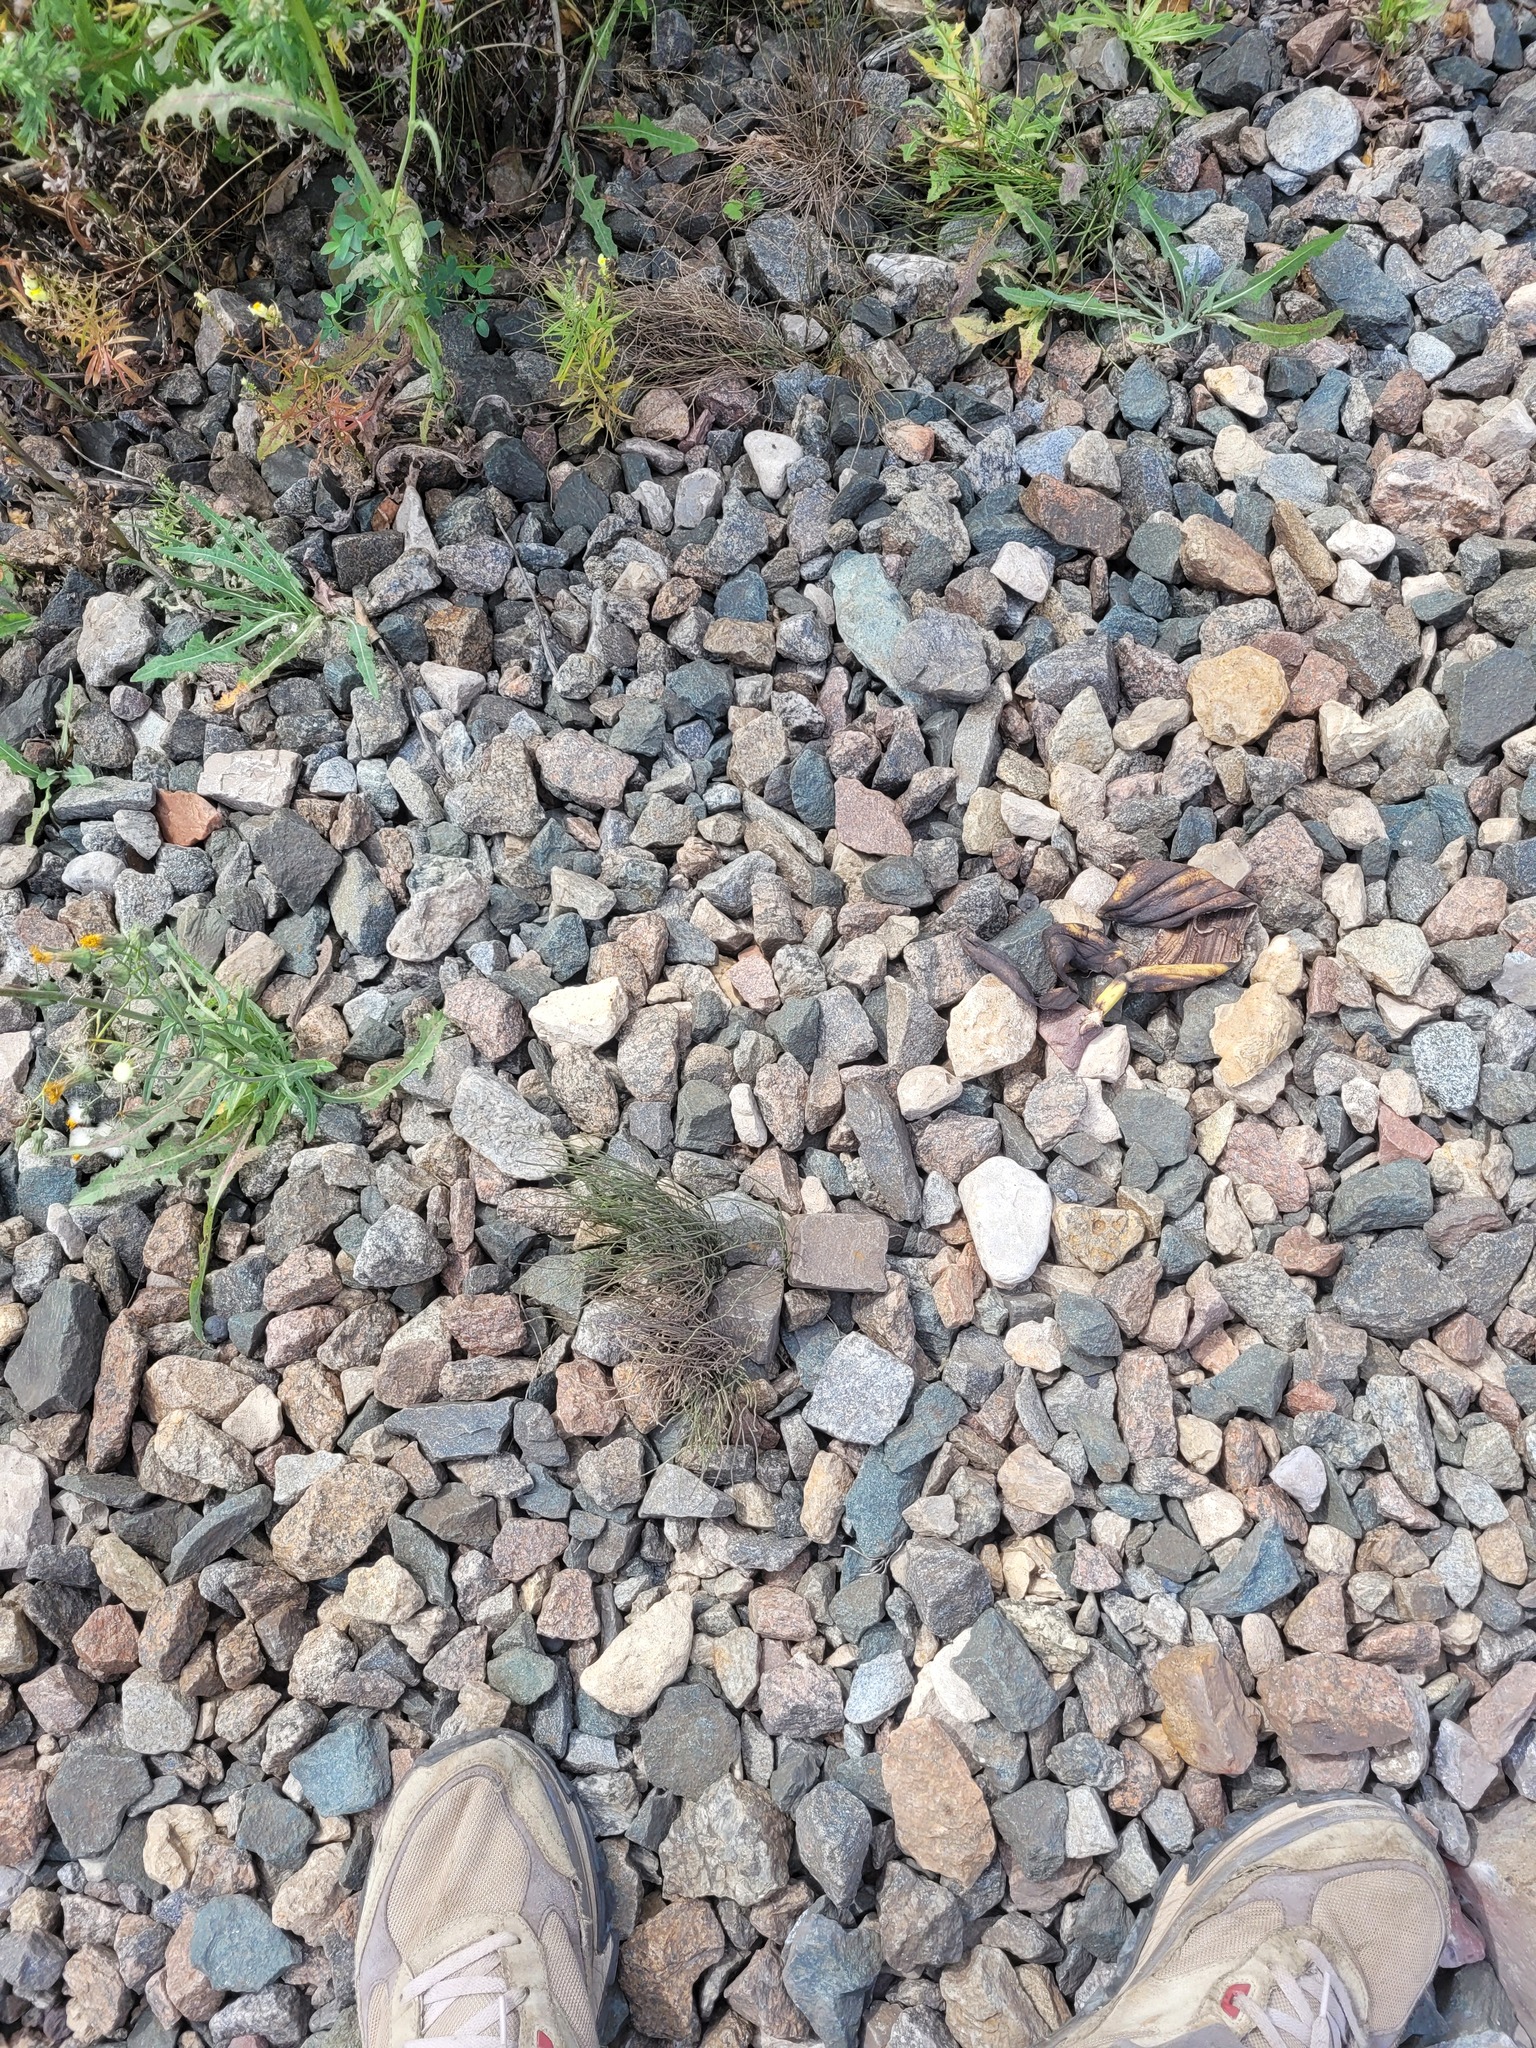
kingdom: Plantae
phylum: Tracheophyta
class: Polypodiopsida
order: Equisetales
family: Equisetaceae
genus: Equisetum
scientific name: Equisetum arvense
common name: Field horsetail
